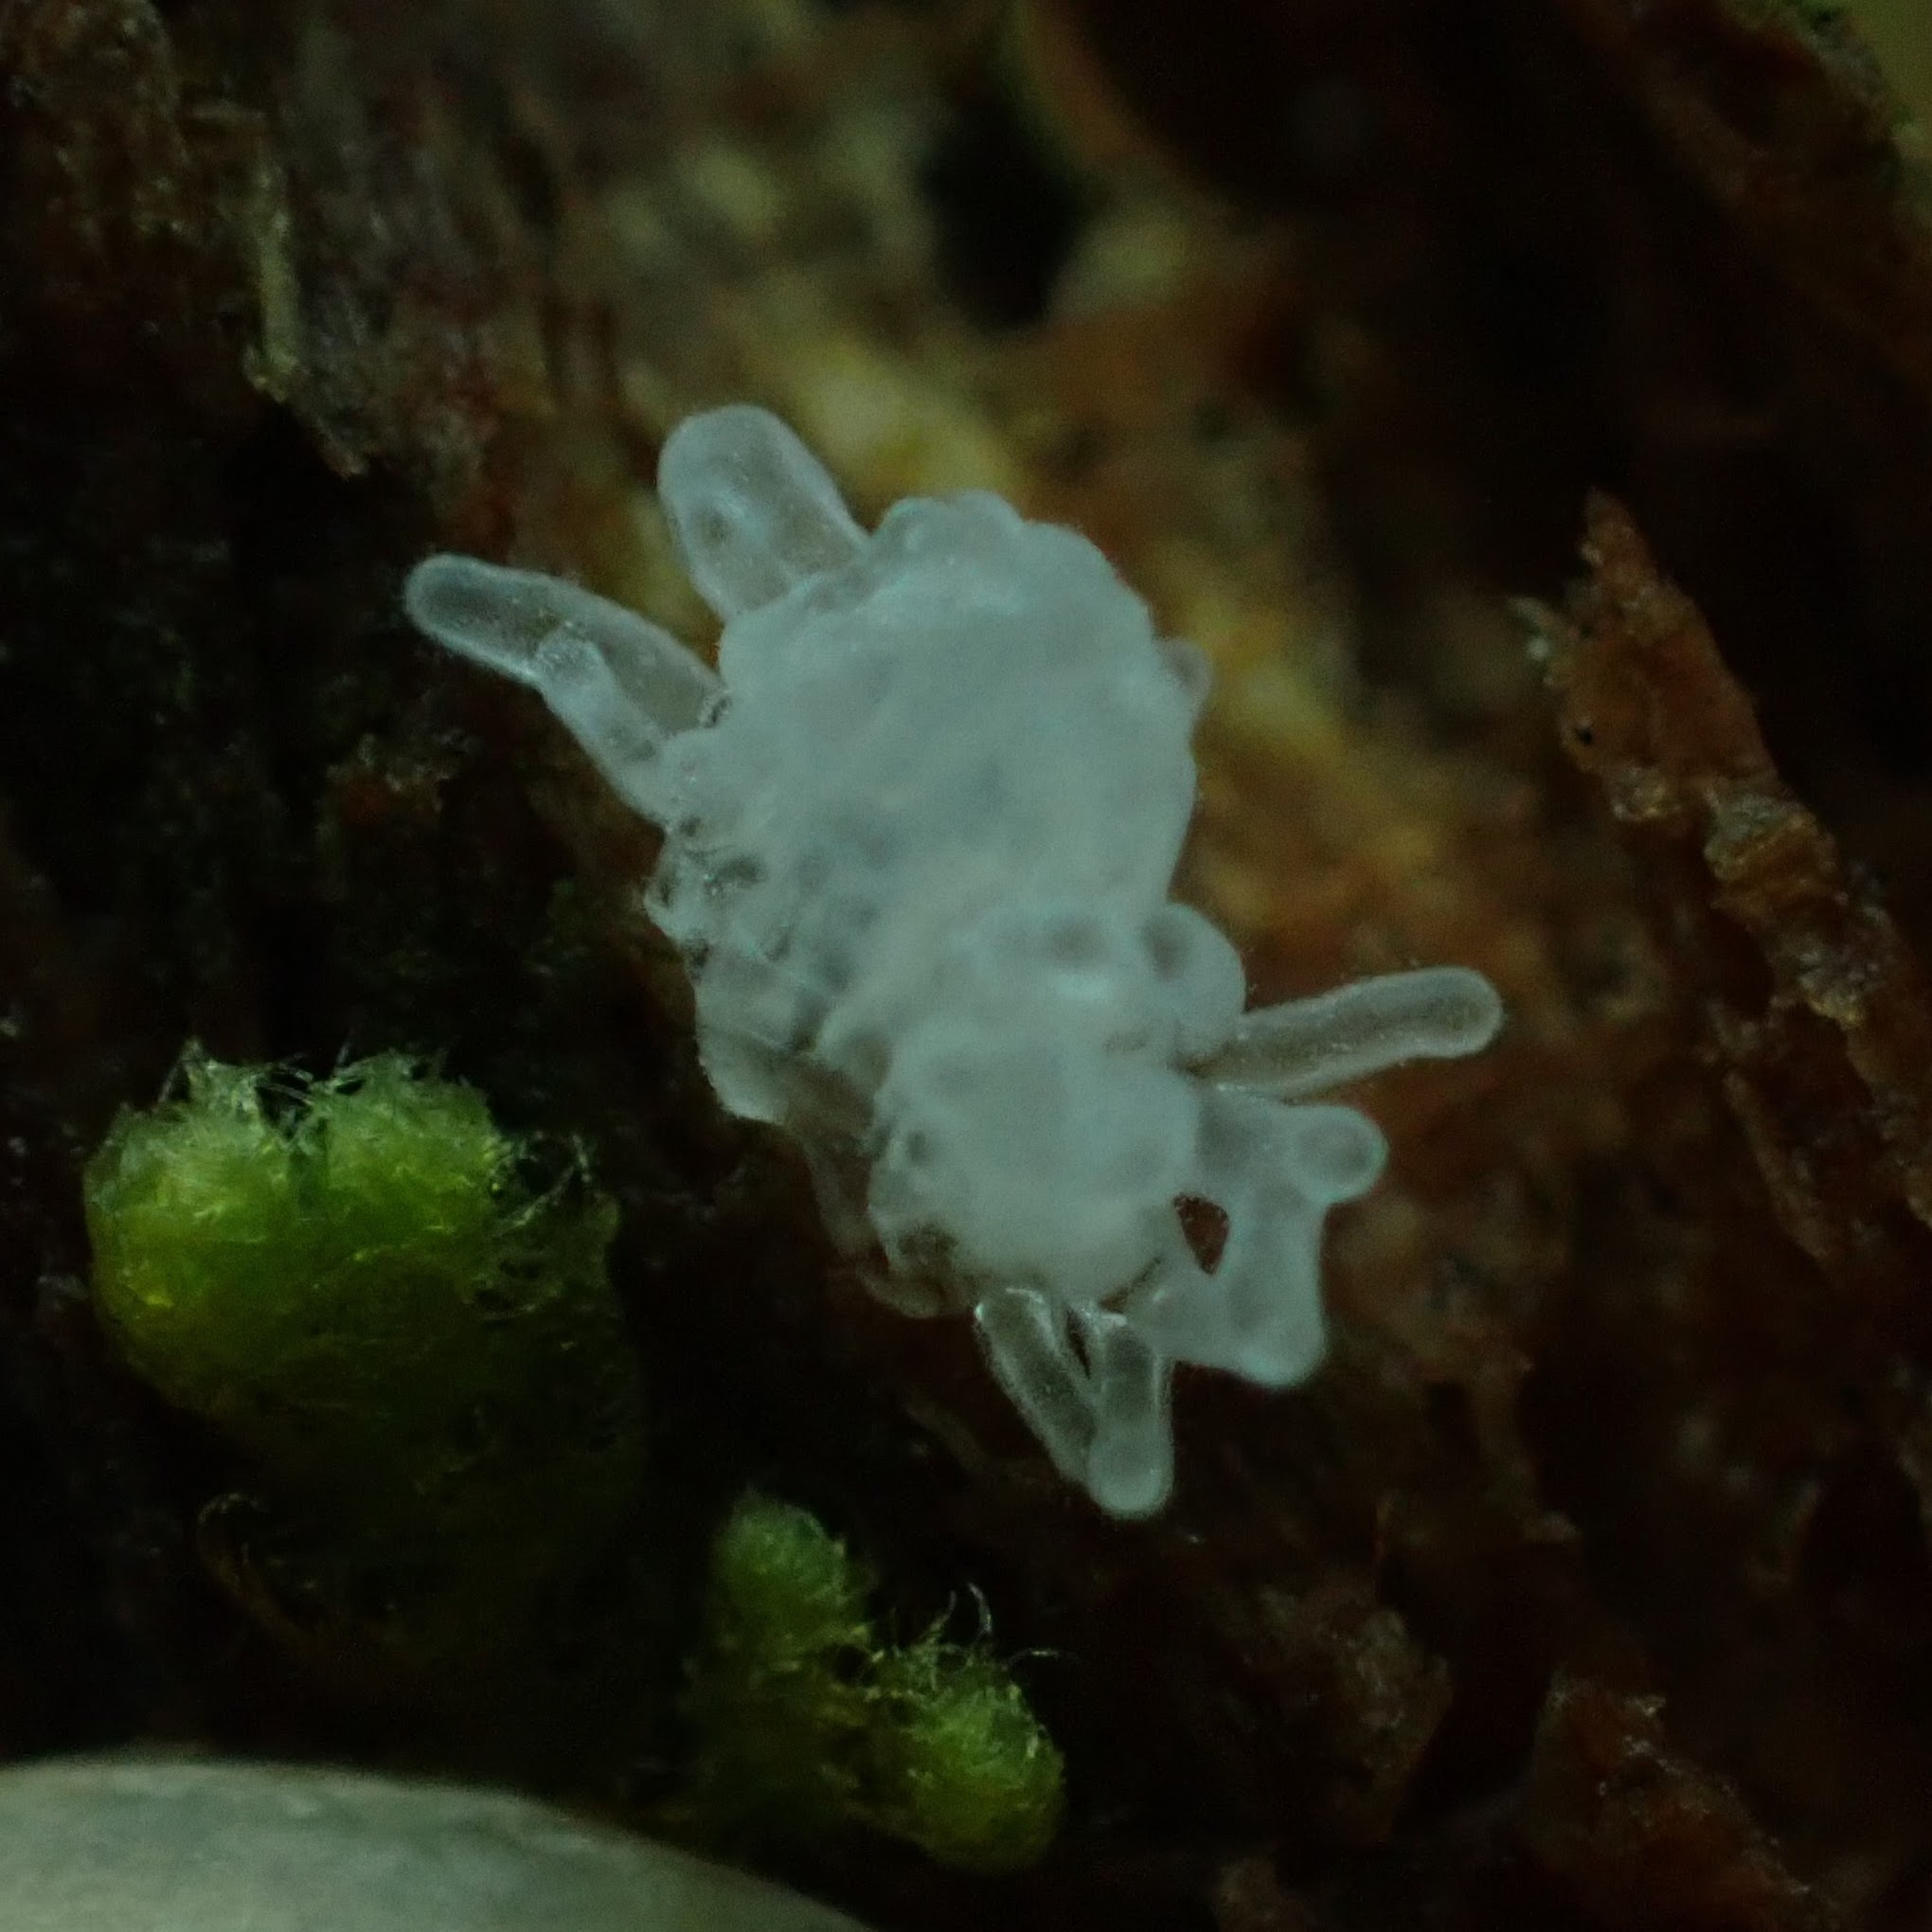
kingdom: Protozoa
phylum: Mycetozoa
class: Protosteliomycetes
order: Ceratiomyxales
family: Ceratiomyxaceae
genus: Ceratiomyxa
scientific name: Ceratiomyxa fruticulosa
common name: Honeycomb coral slime mold
